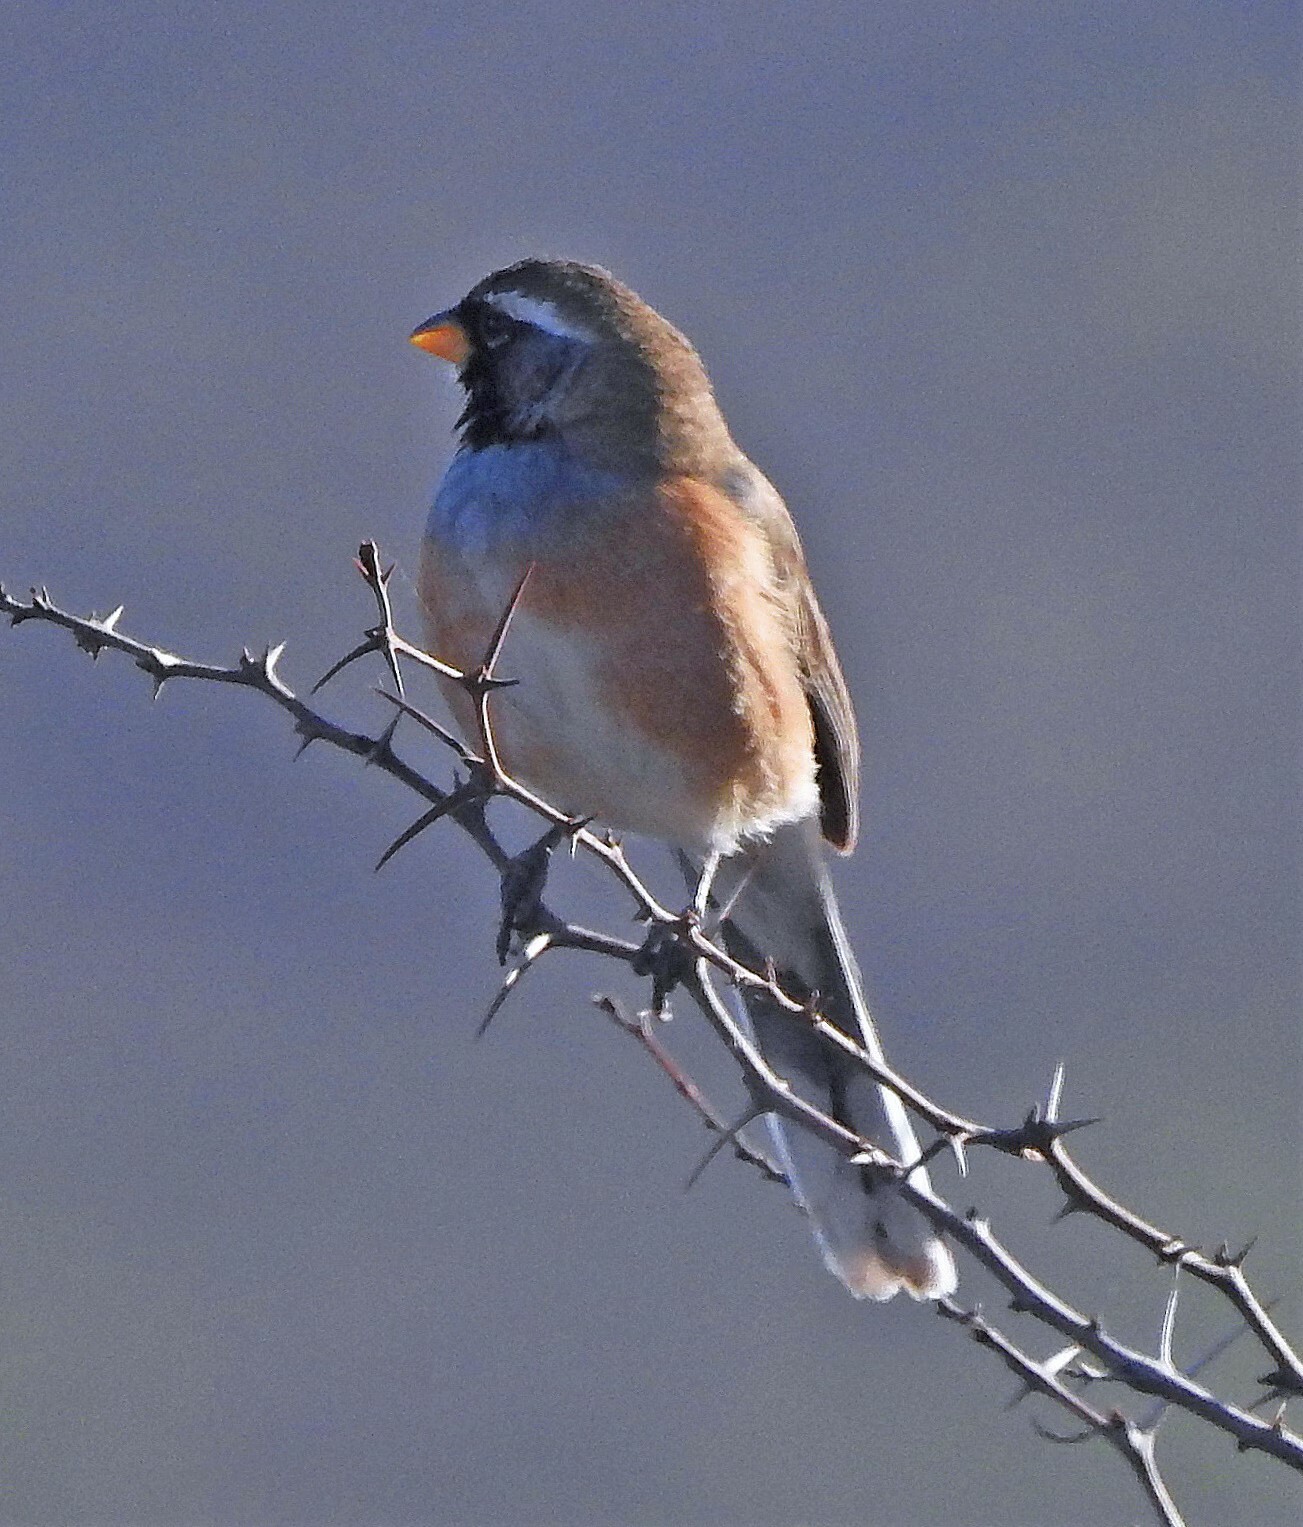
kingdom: Animalia
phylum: Chordata
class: Aves
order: Passeriformes
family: Thraupidae
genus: Saltatricula
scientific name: Saltatricula multicolor
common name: Many-colored chaco finch
